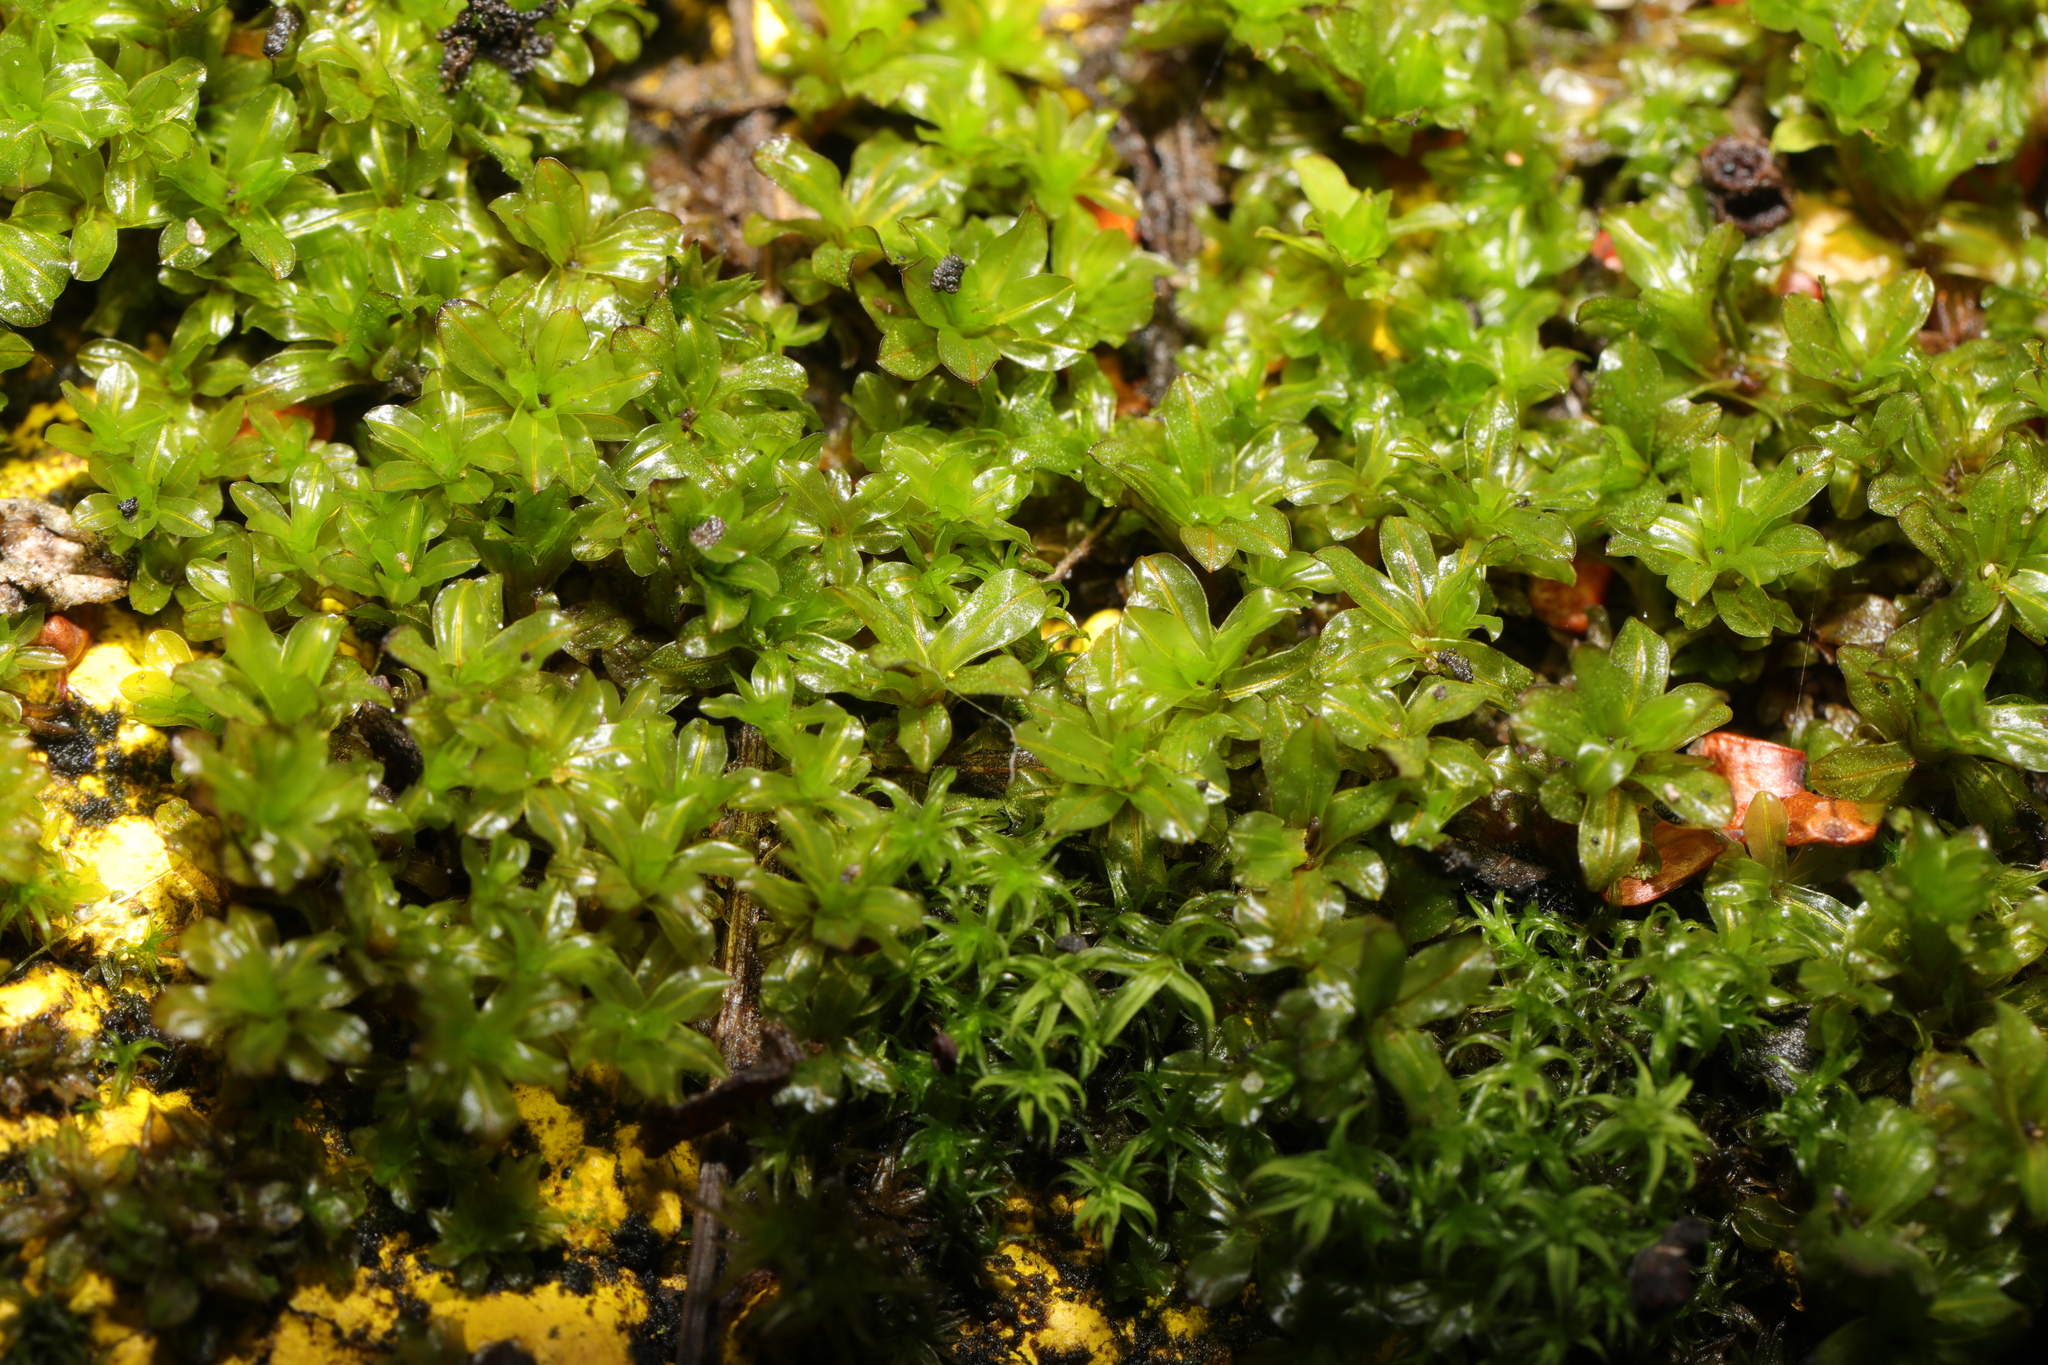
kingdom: Plantae
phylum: Bryophyta
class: Bryopsida
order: Pottiales
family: Pottiaceae
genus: Syntrichia
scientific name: Syntrichia latifolia
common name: Water screw-moss
